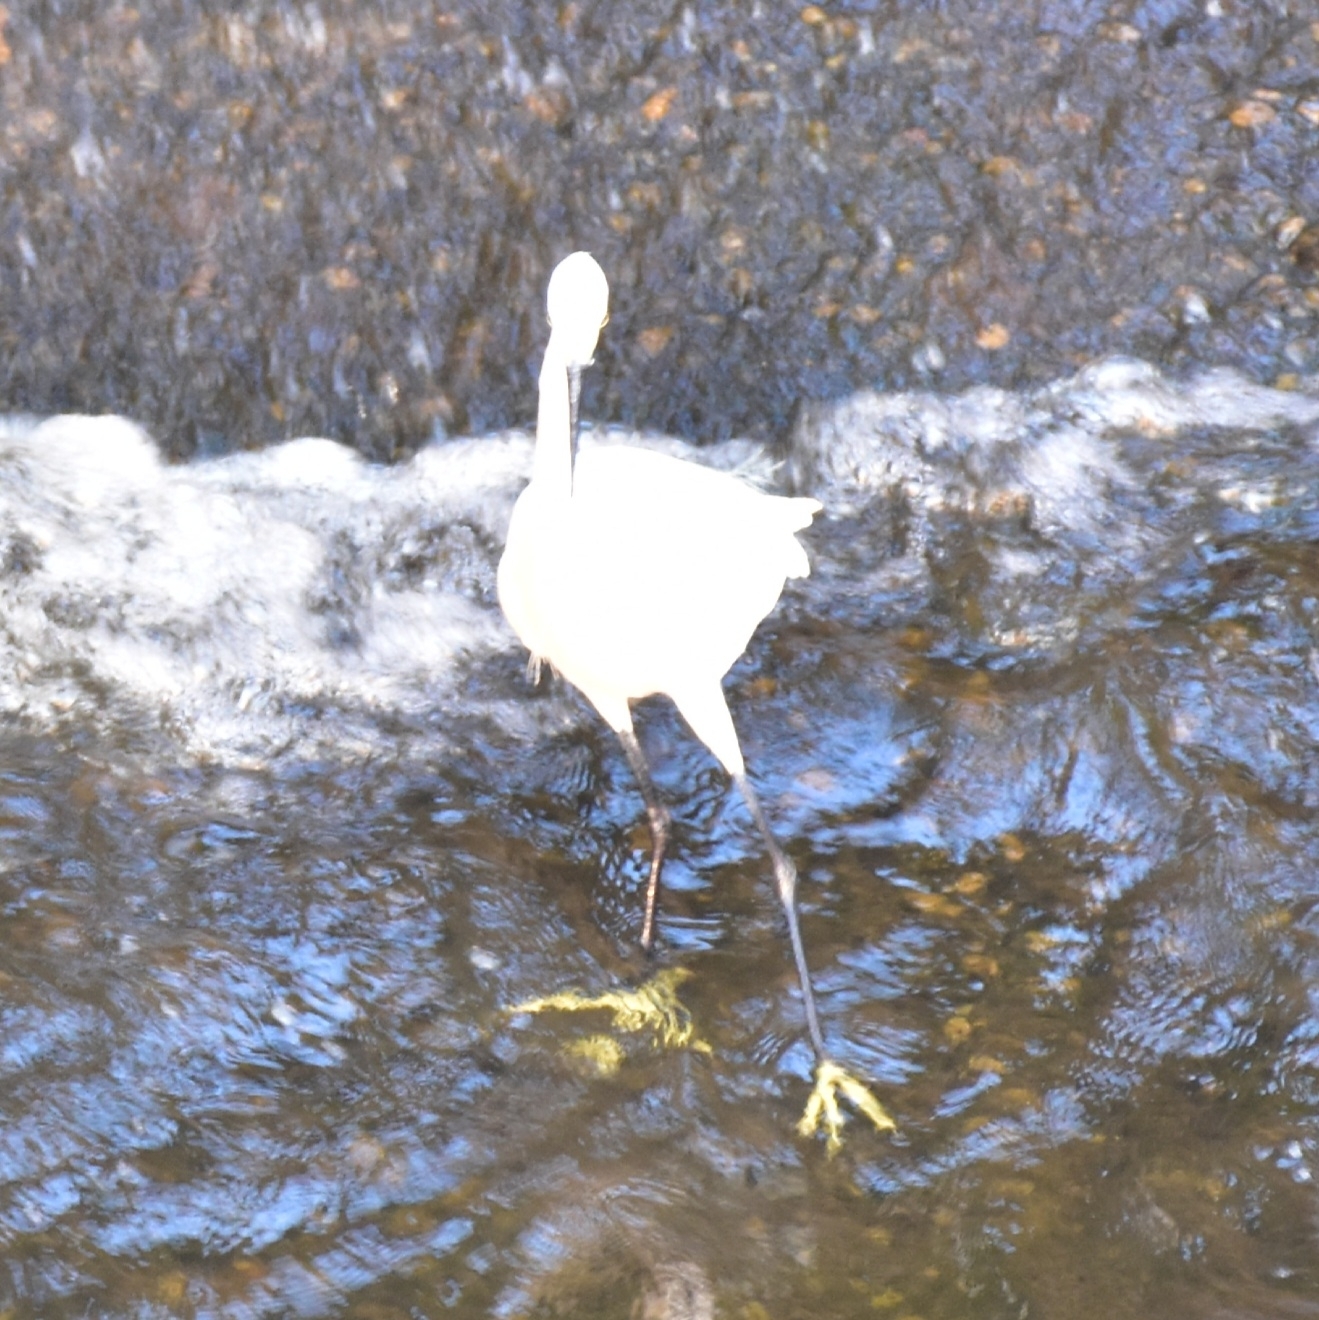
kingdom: Animalia
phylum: Chordata
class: Aves
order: Pelecaniformes
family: Ardeidae
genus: Egretta
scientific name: Egretta garzetta
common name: Little egret
